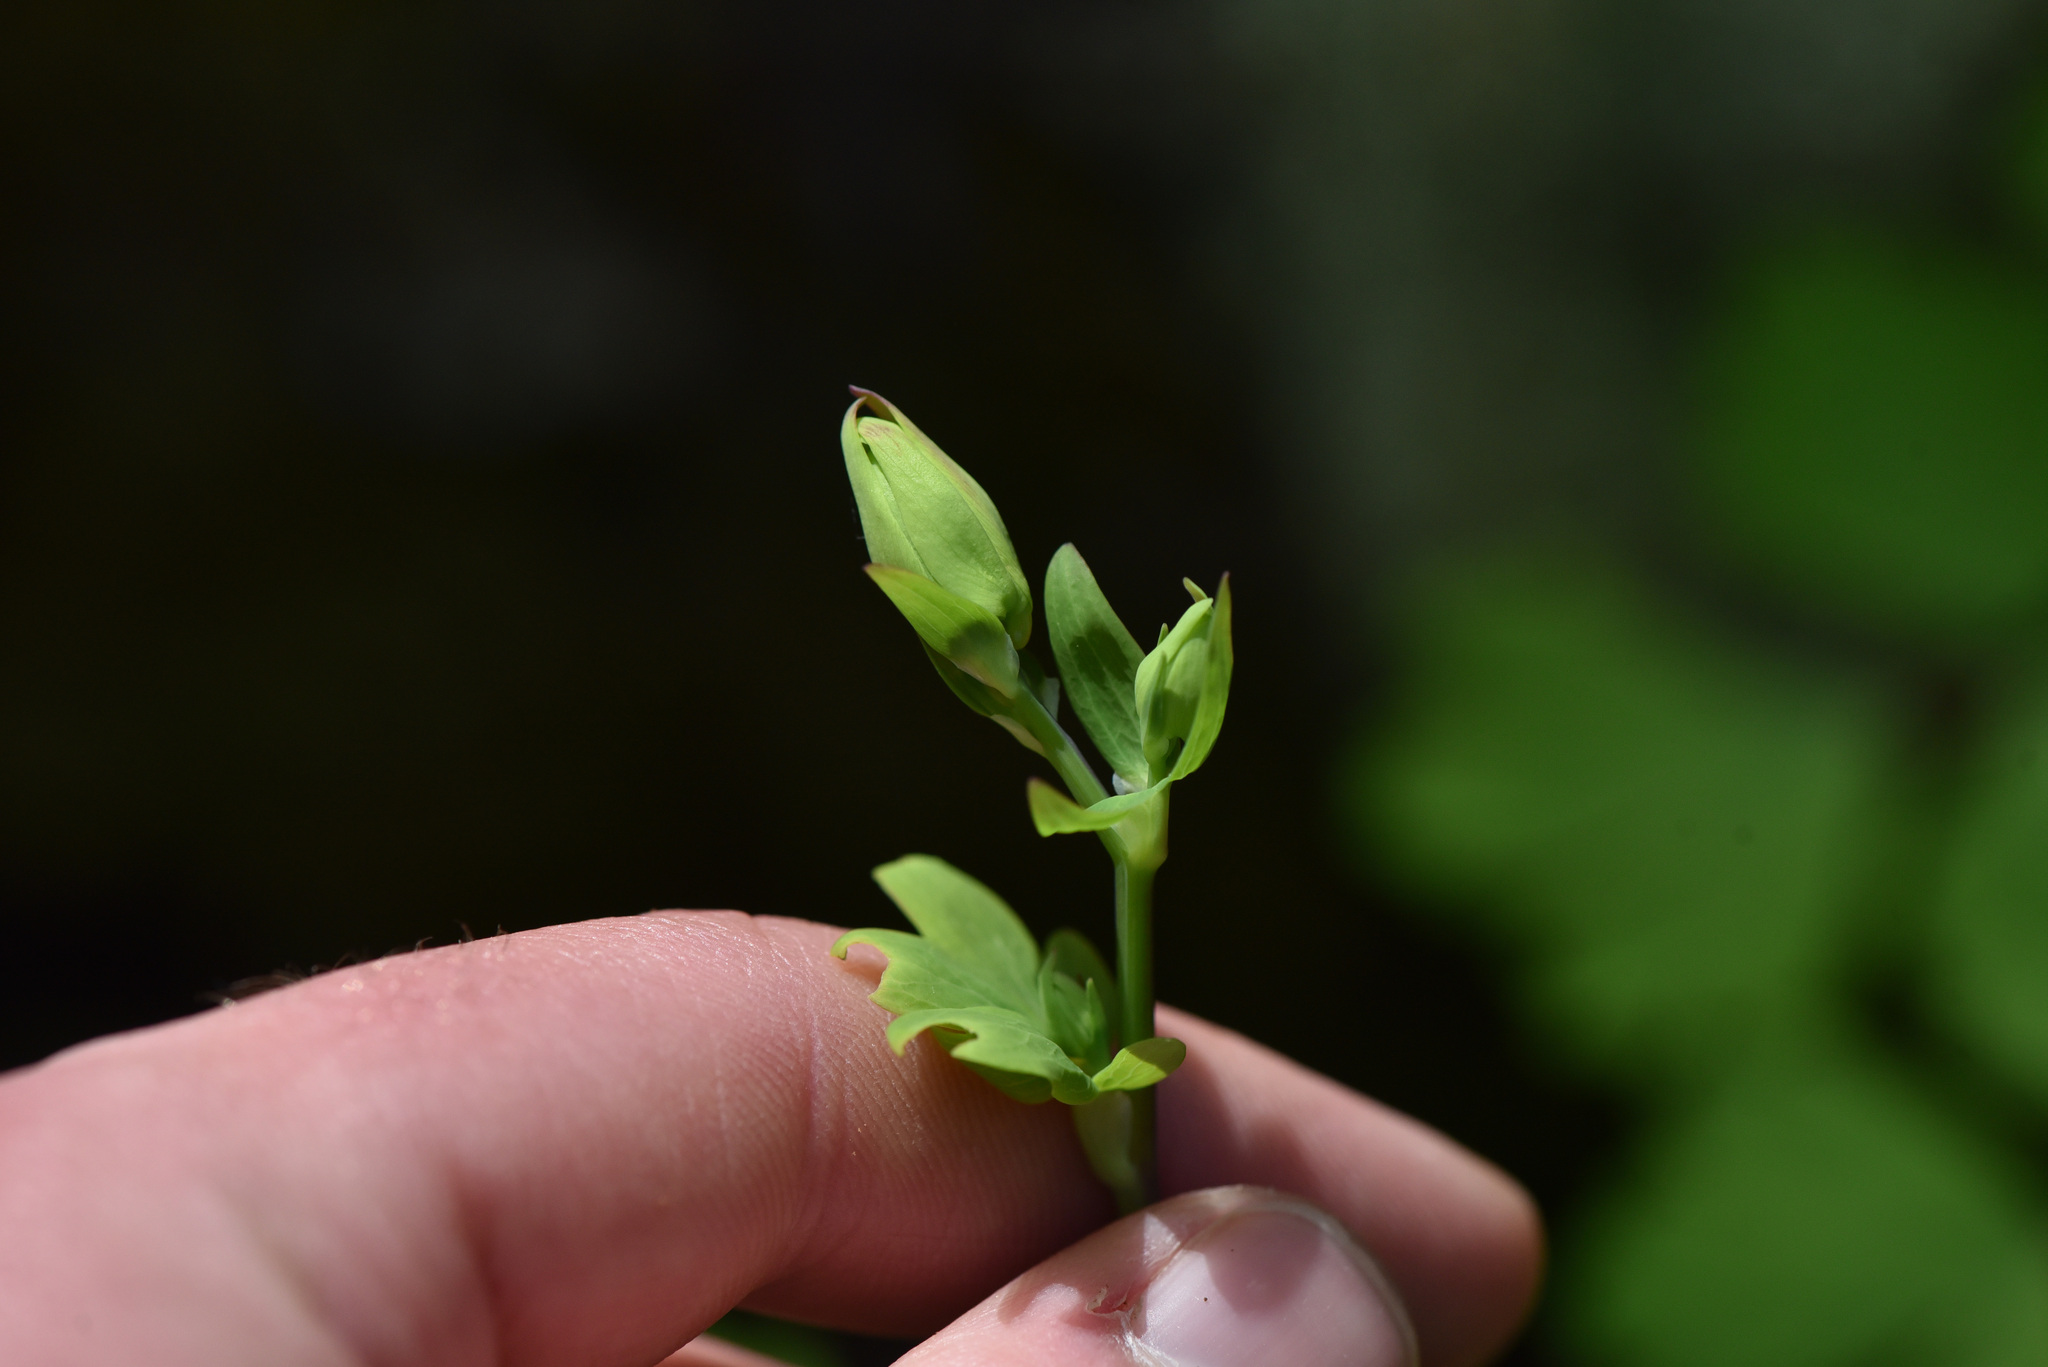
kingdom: Plantae
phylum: Tracheophyta
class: Magnoliopsida
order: Ranunculales
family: Ranunculaceae
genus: Aquilegia
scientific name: Aquilegia formosa
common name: Sitka columbine
